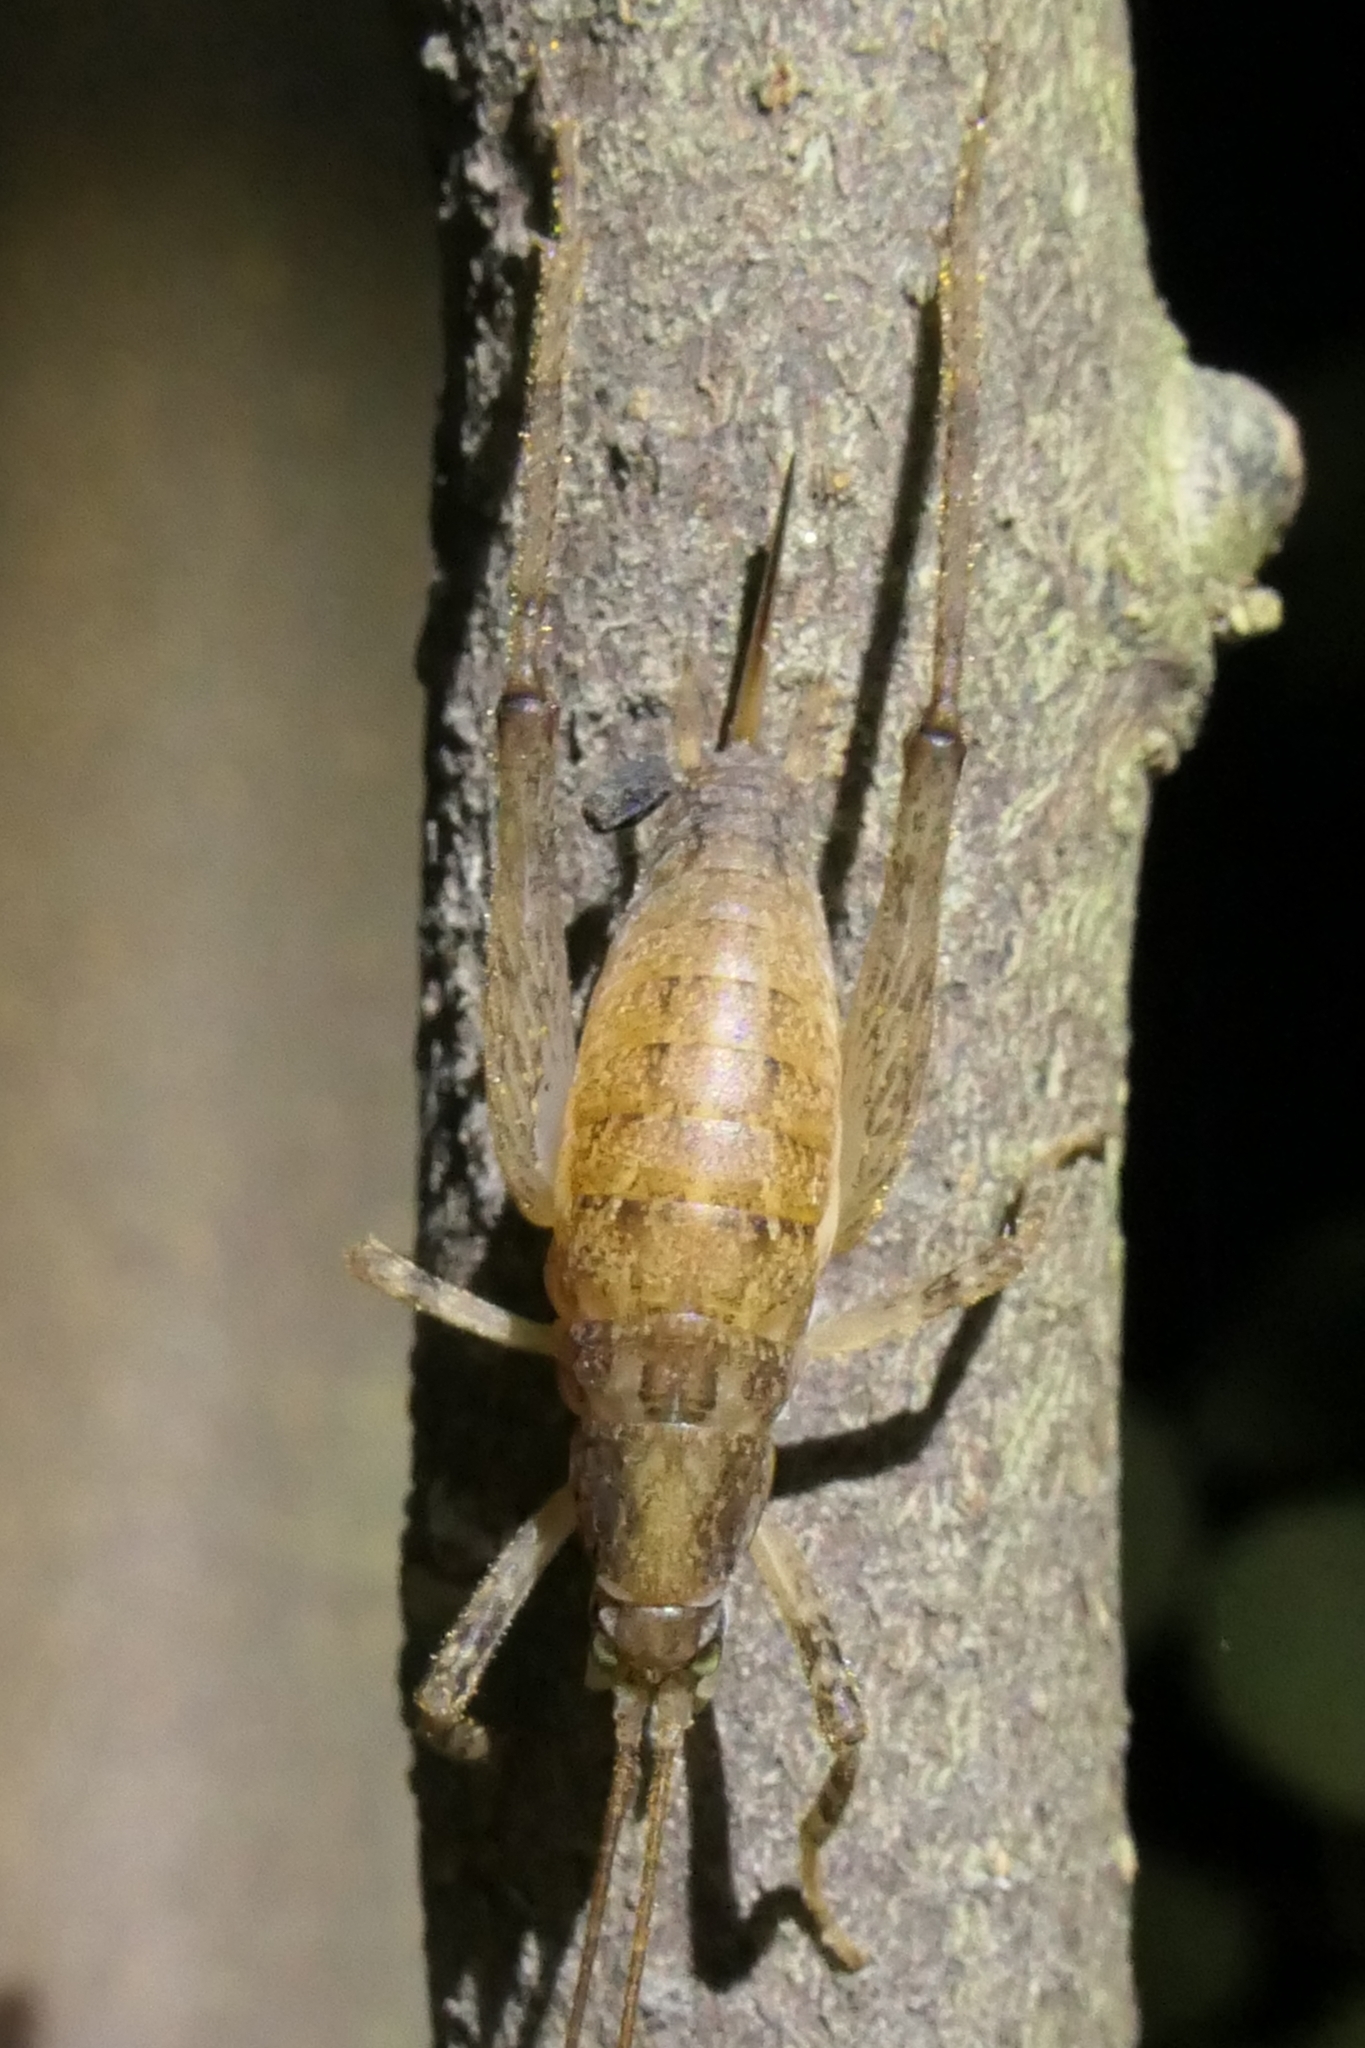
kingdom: Animalia
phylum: Arthropoda
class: Insecta
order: Orthoptera
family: Rhaphidophoridae
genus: Isoplectron
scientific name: Isoplectron armatum
